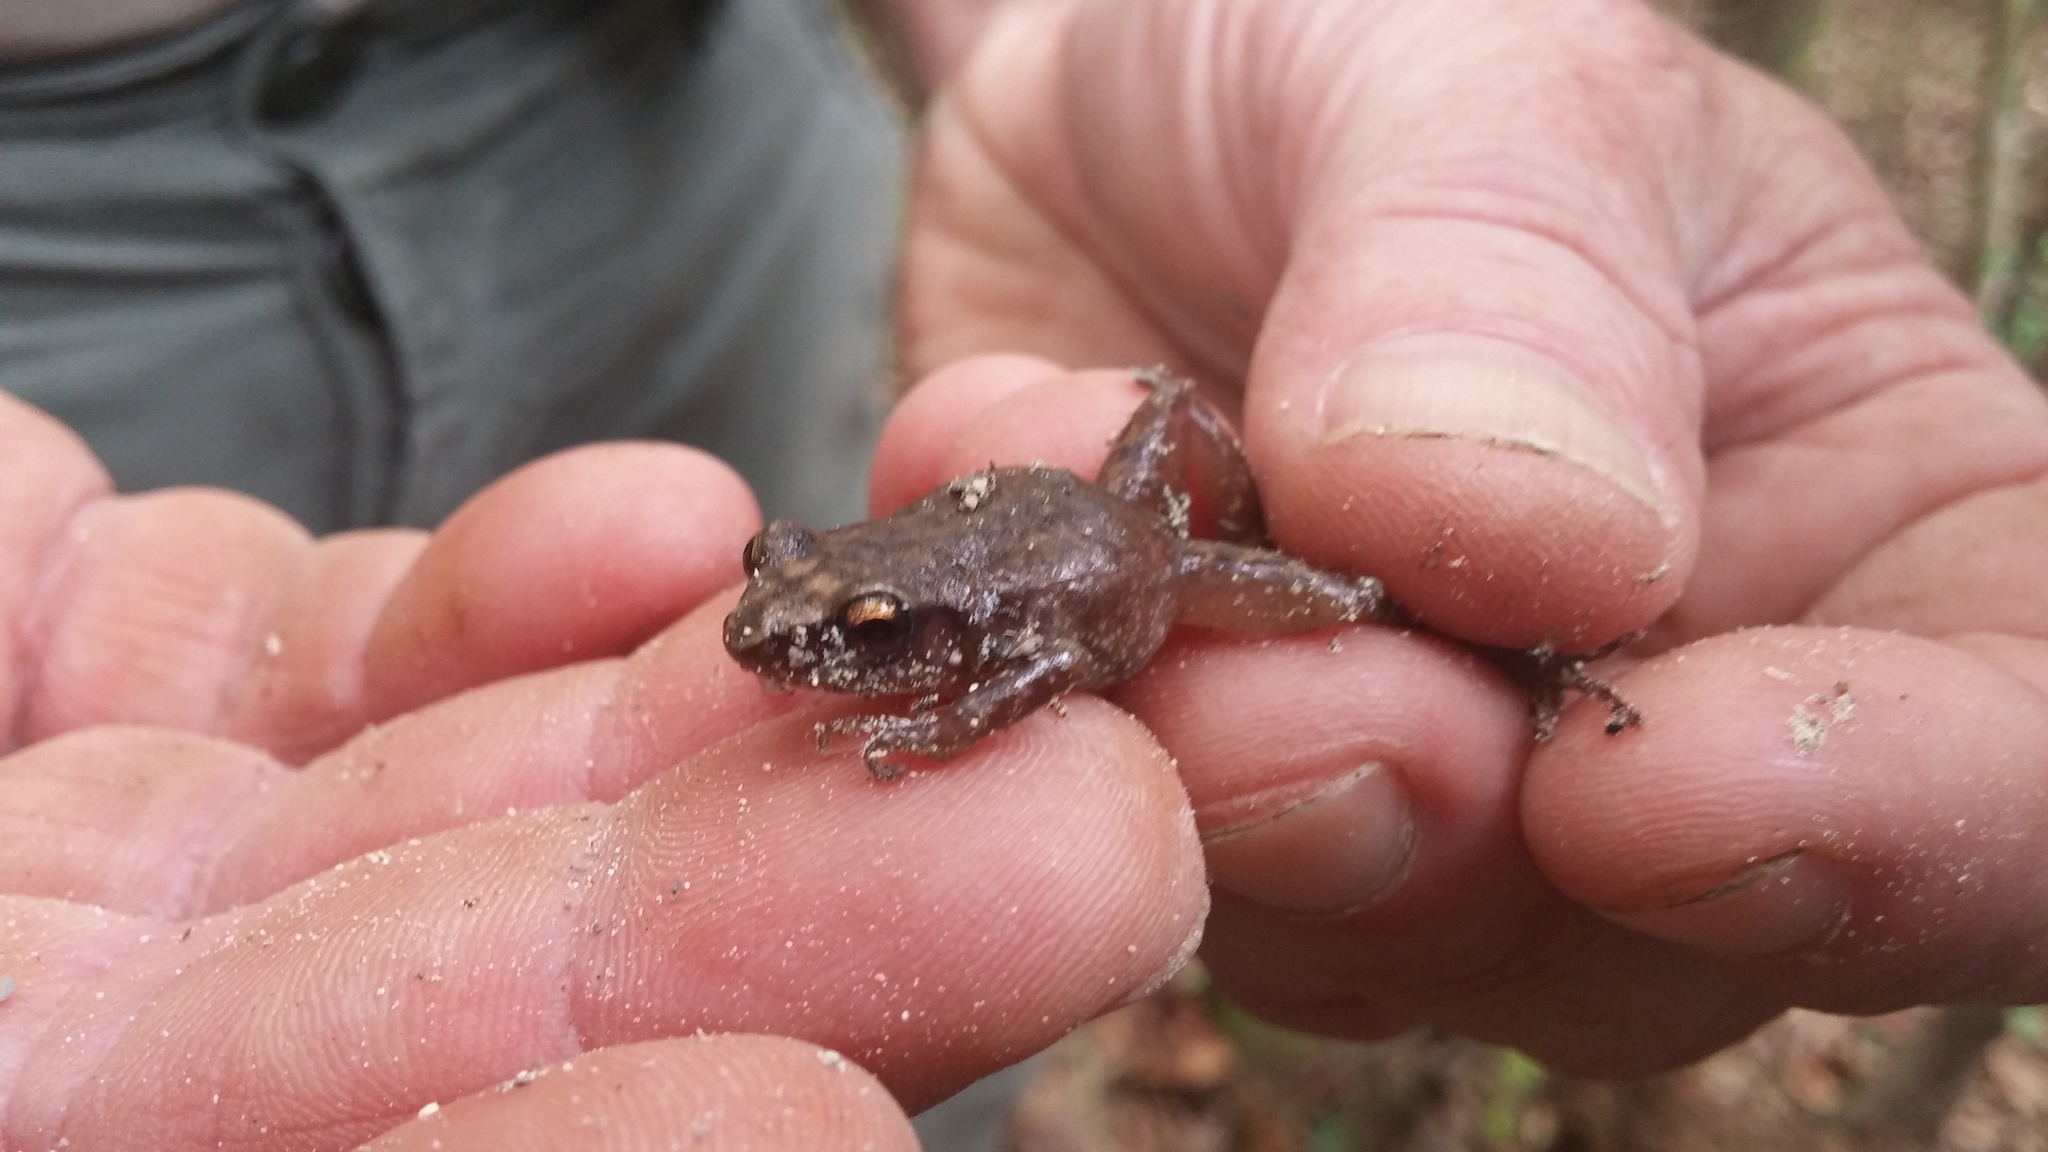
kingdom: Animalia
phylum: Chordata
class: Amphibia
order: Anura
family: Eleutherodactylidae
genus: Eleutherodactylus
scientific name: Eleutherodactylus campi
